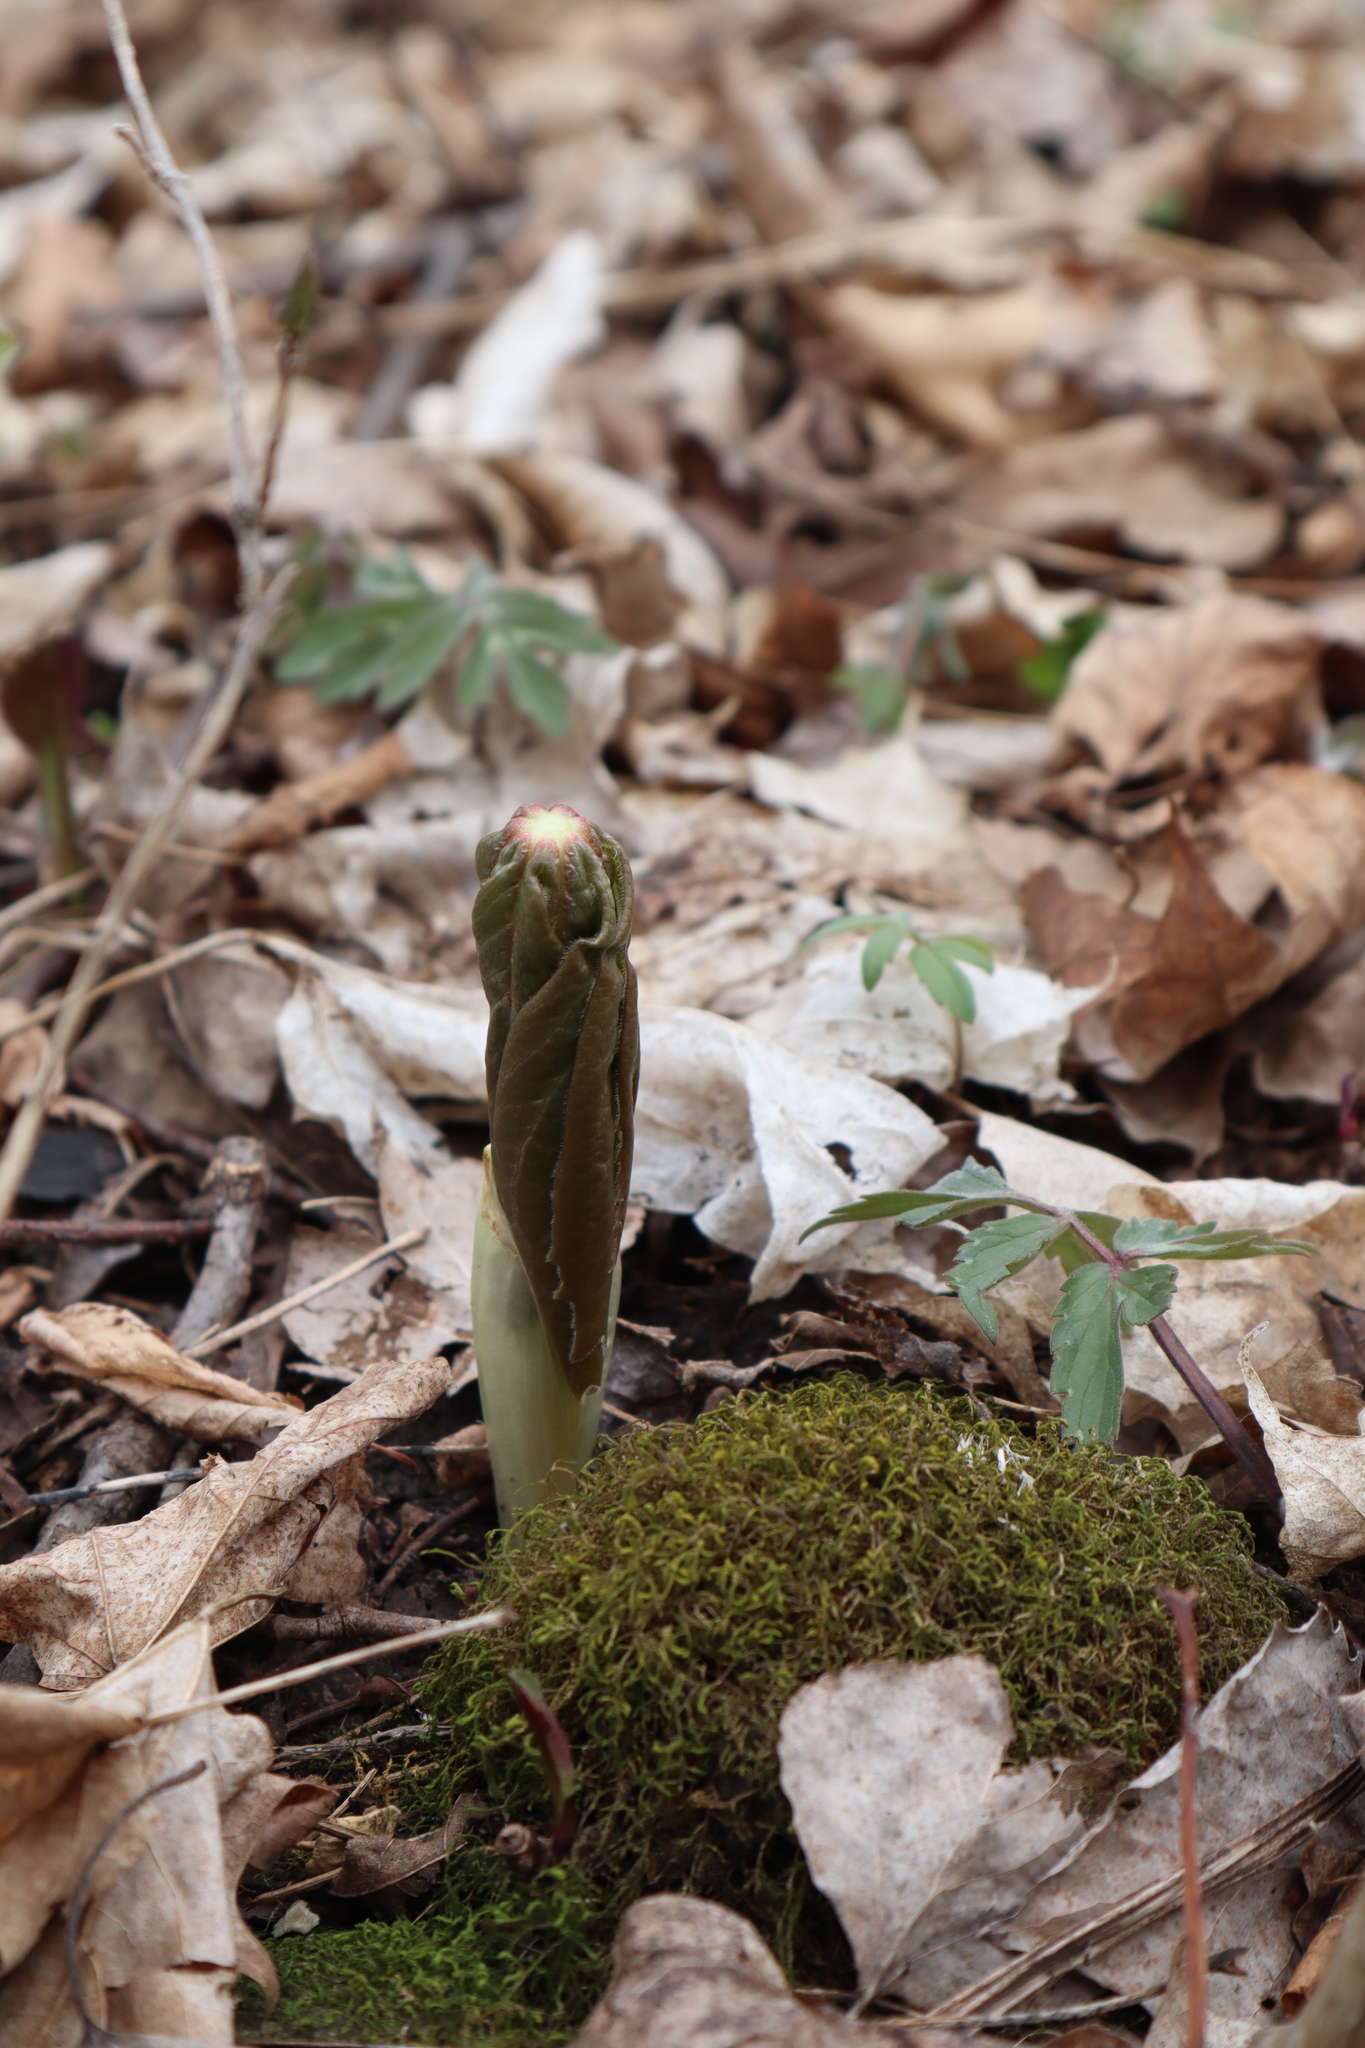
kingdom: Plantae
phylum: Tracheophyta
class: Magnoliopsida
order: Ranunculales
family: Berberidaceae
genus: Podophyllum
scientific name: Podophyllum peltatum
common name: Wild mandrake
